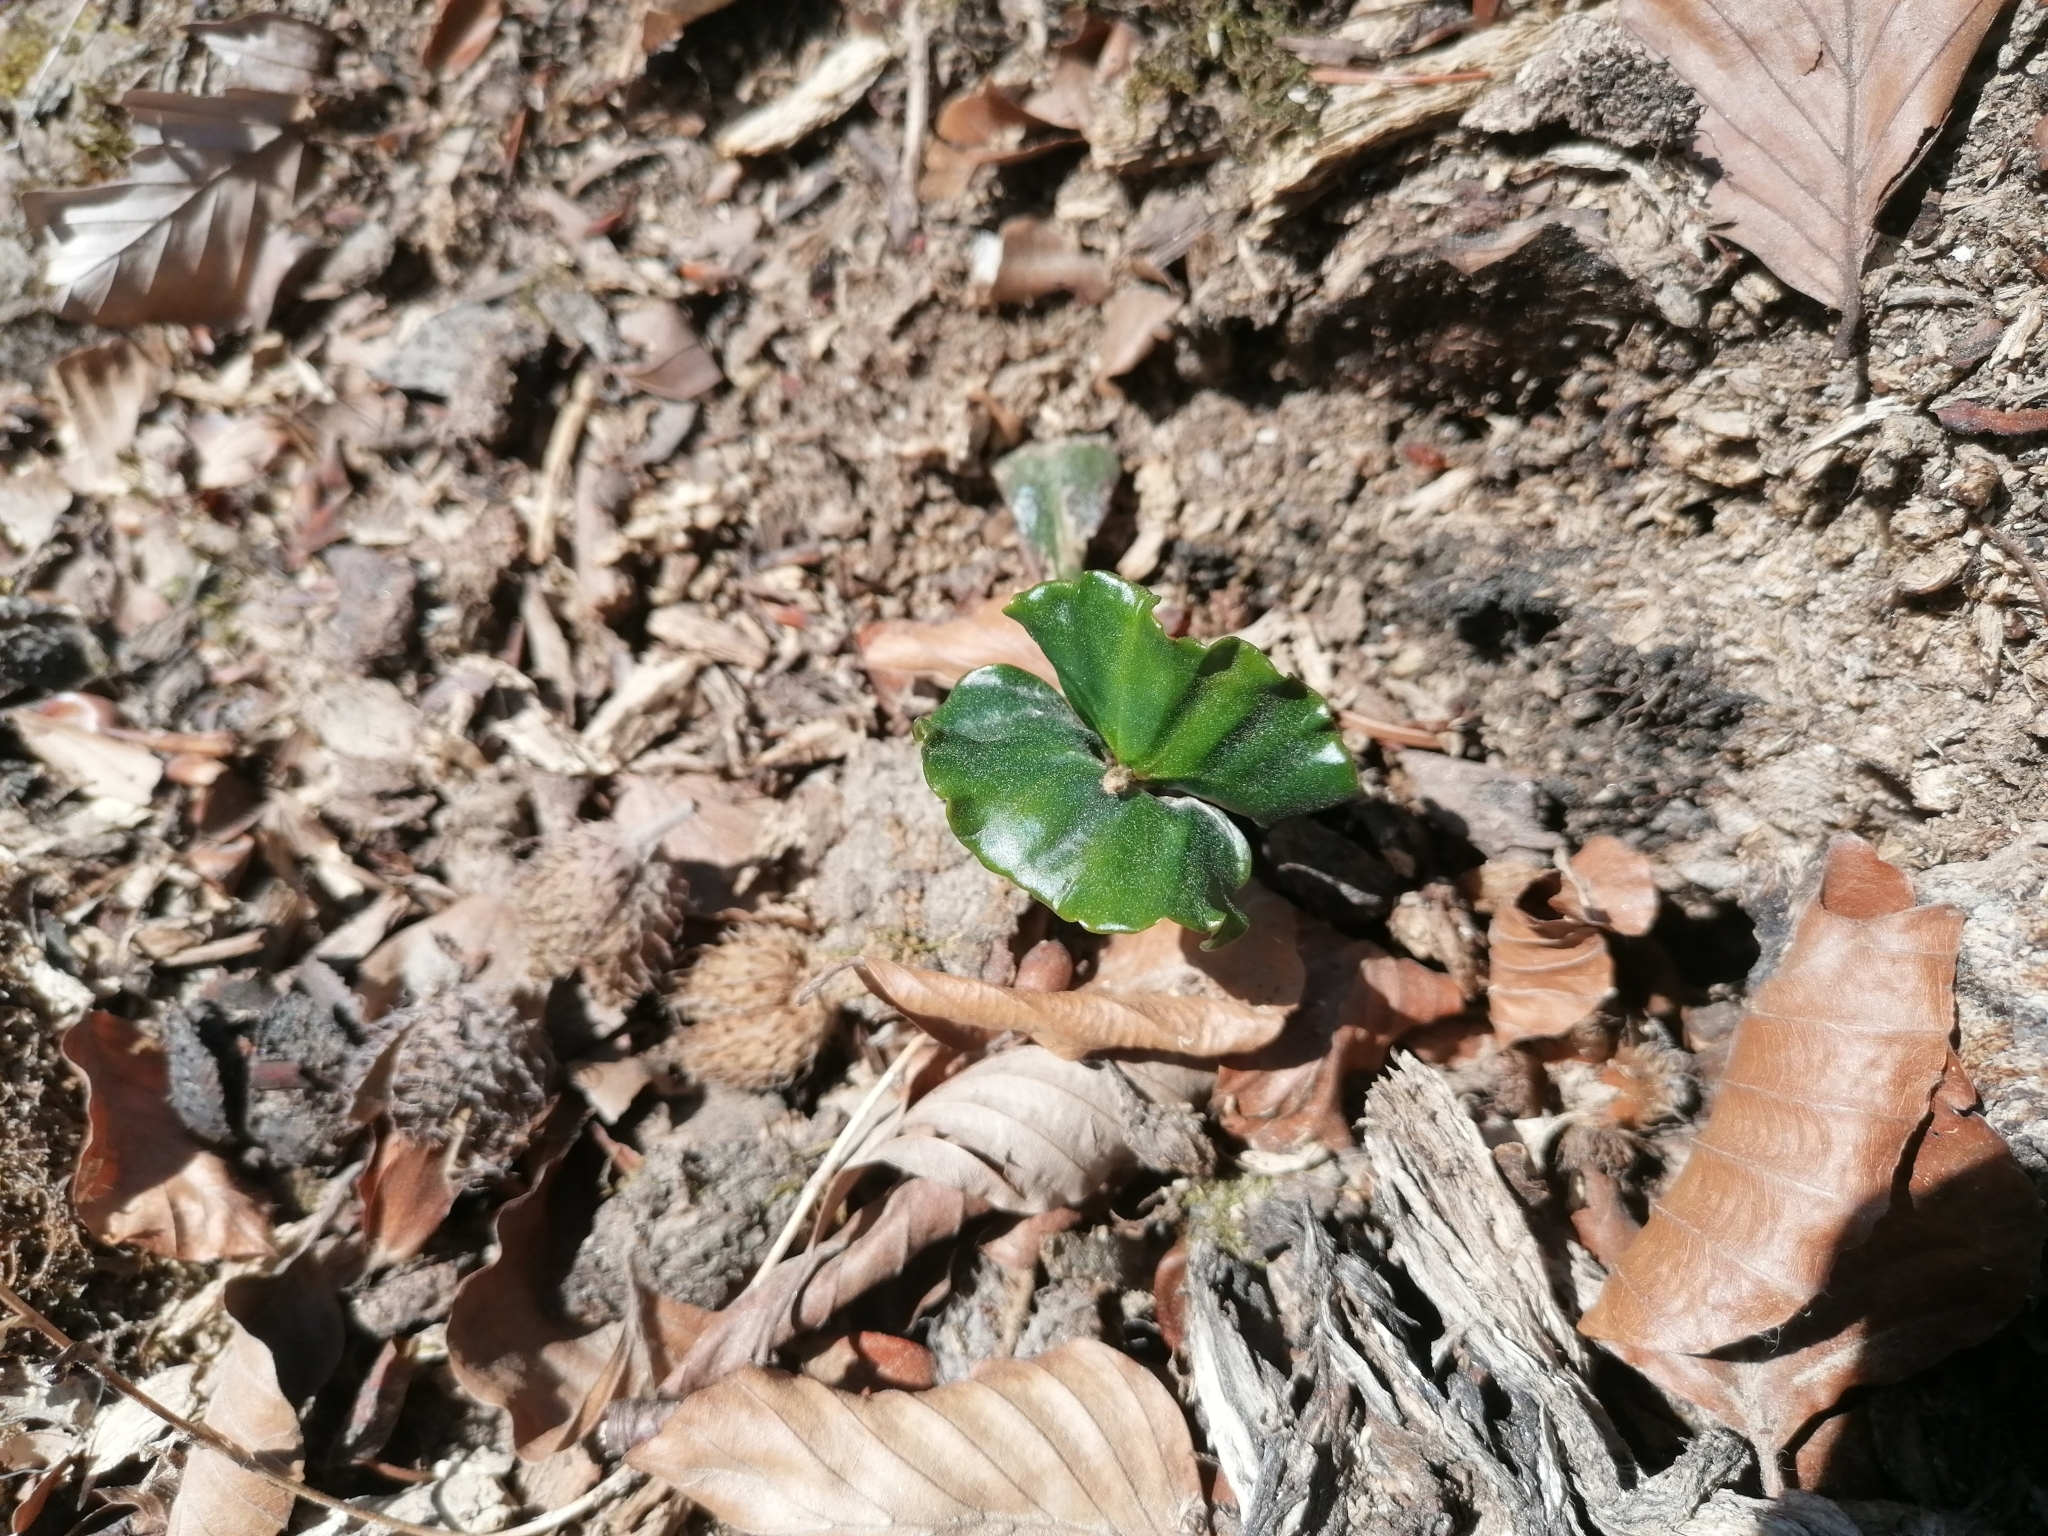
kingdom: Plantae
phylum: Tracheophyta
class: Magnoliopsida
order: Fagales
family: Fagaceae
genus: Fagus
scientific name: Fagus sylvatica
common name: Beech
